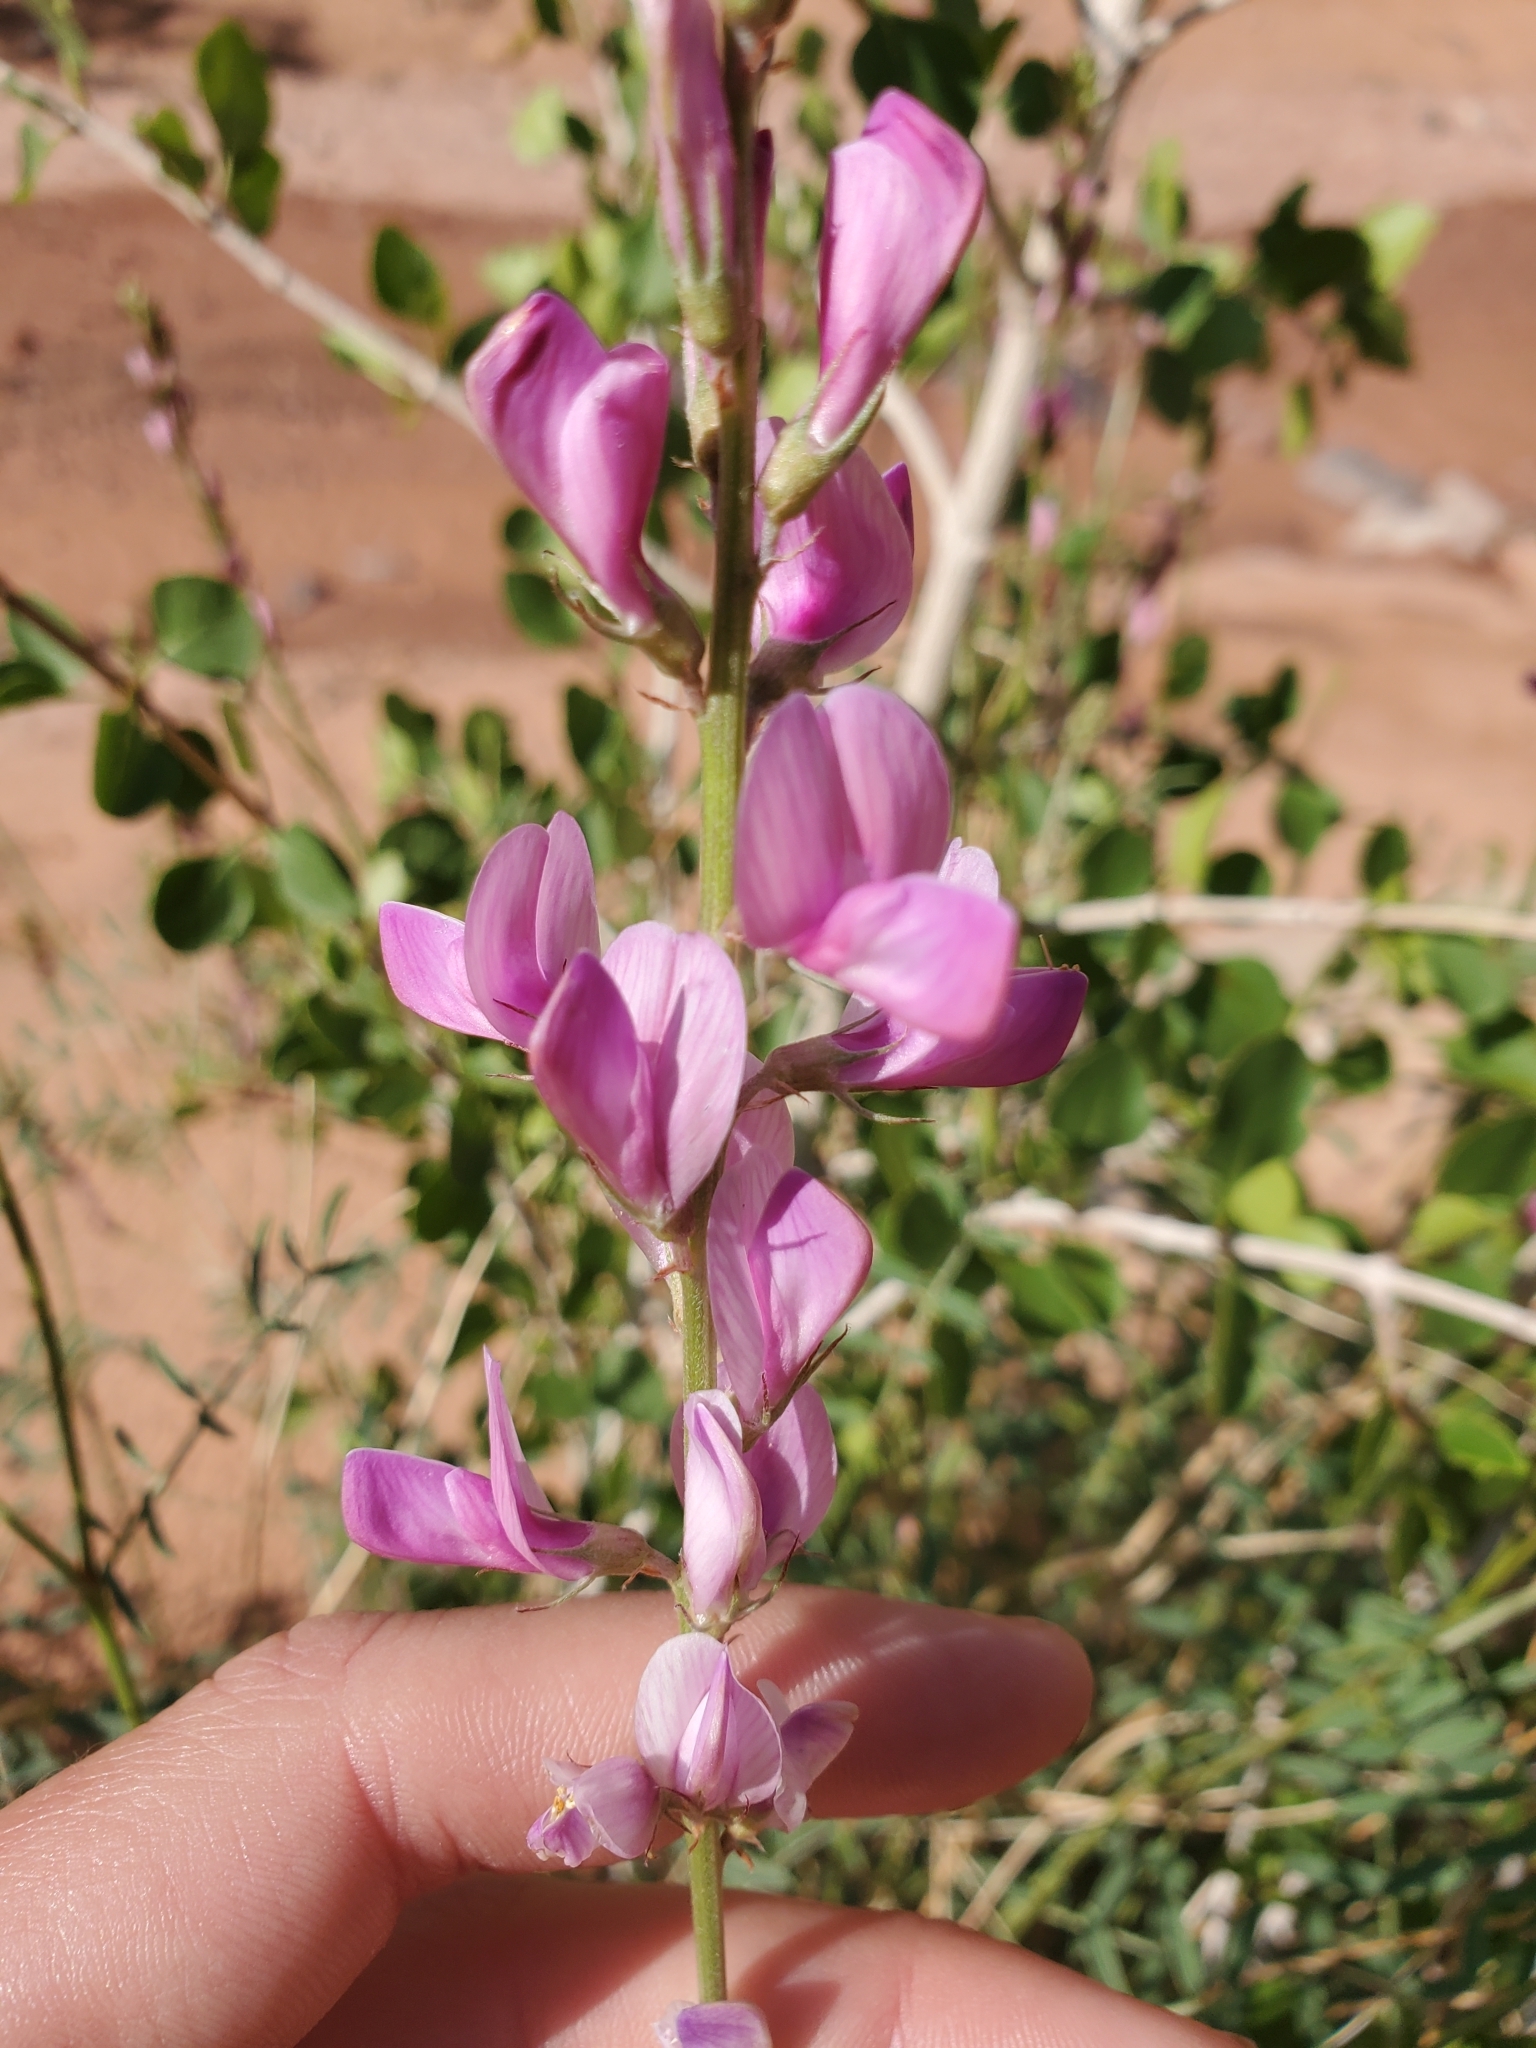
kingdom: Plantae
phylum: Tracheophyta
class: Magnoliopsida
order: Fabales
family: Fabaceae
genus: Hedysarum
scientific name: Hedysarum boreale
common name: Northern sweet-vetch
